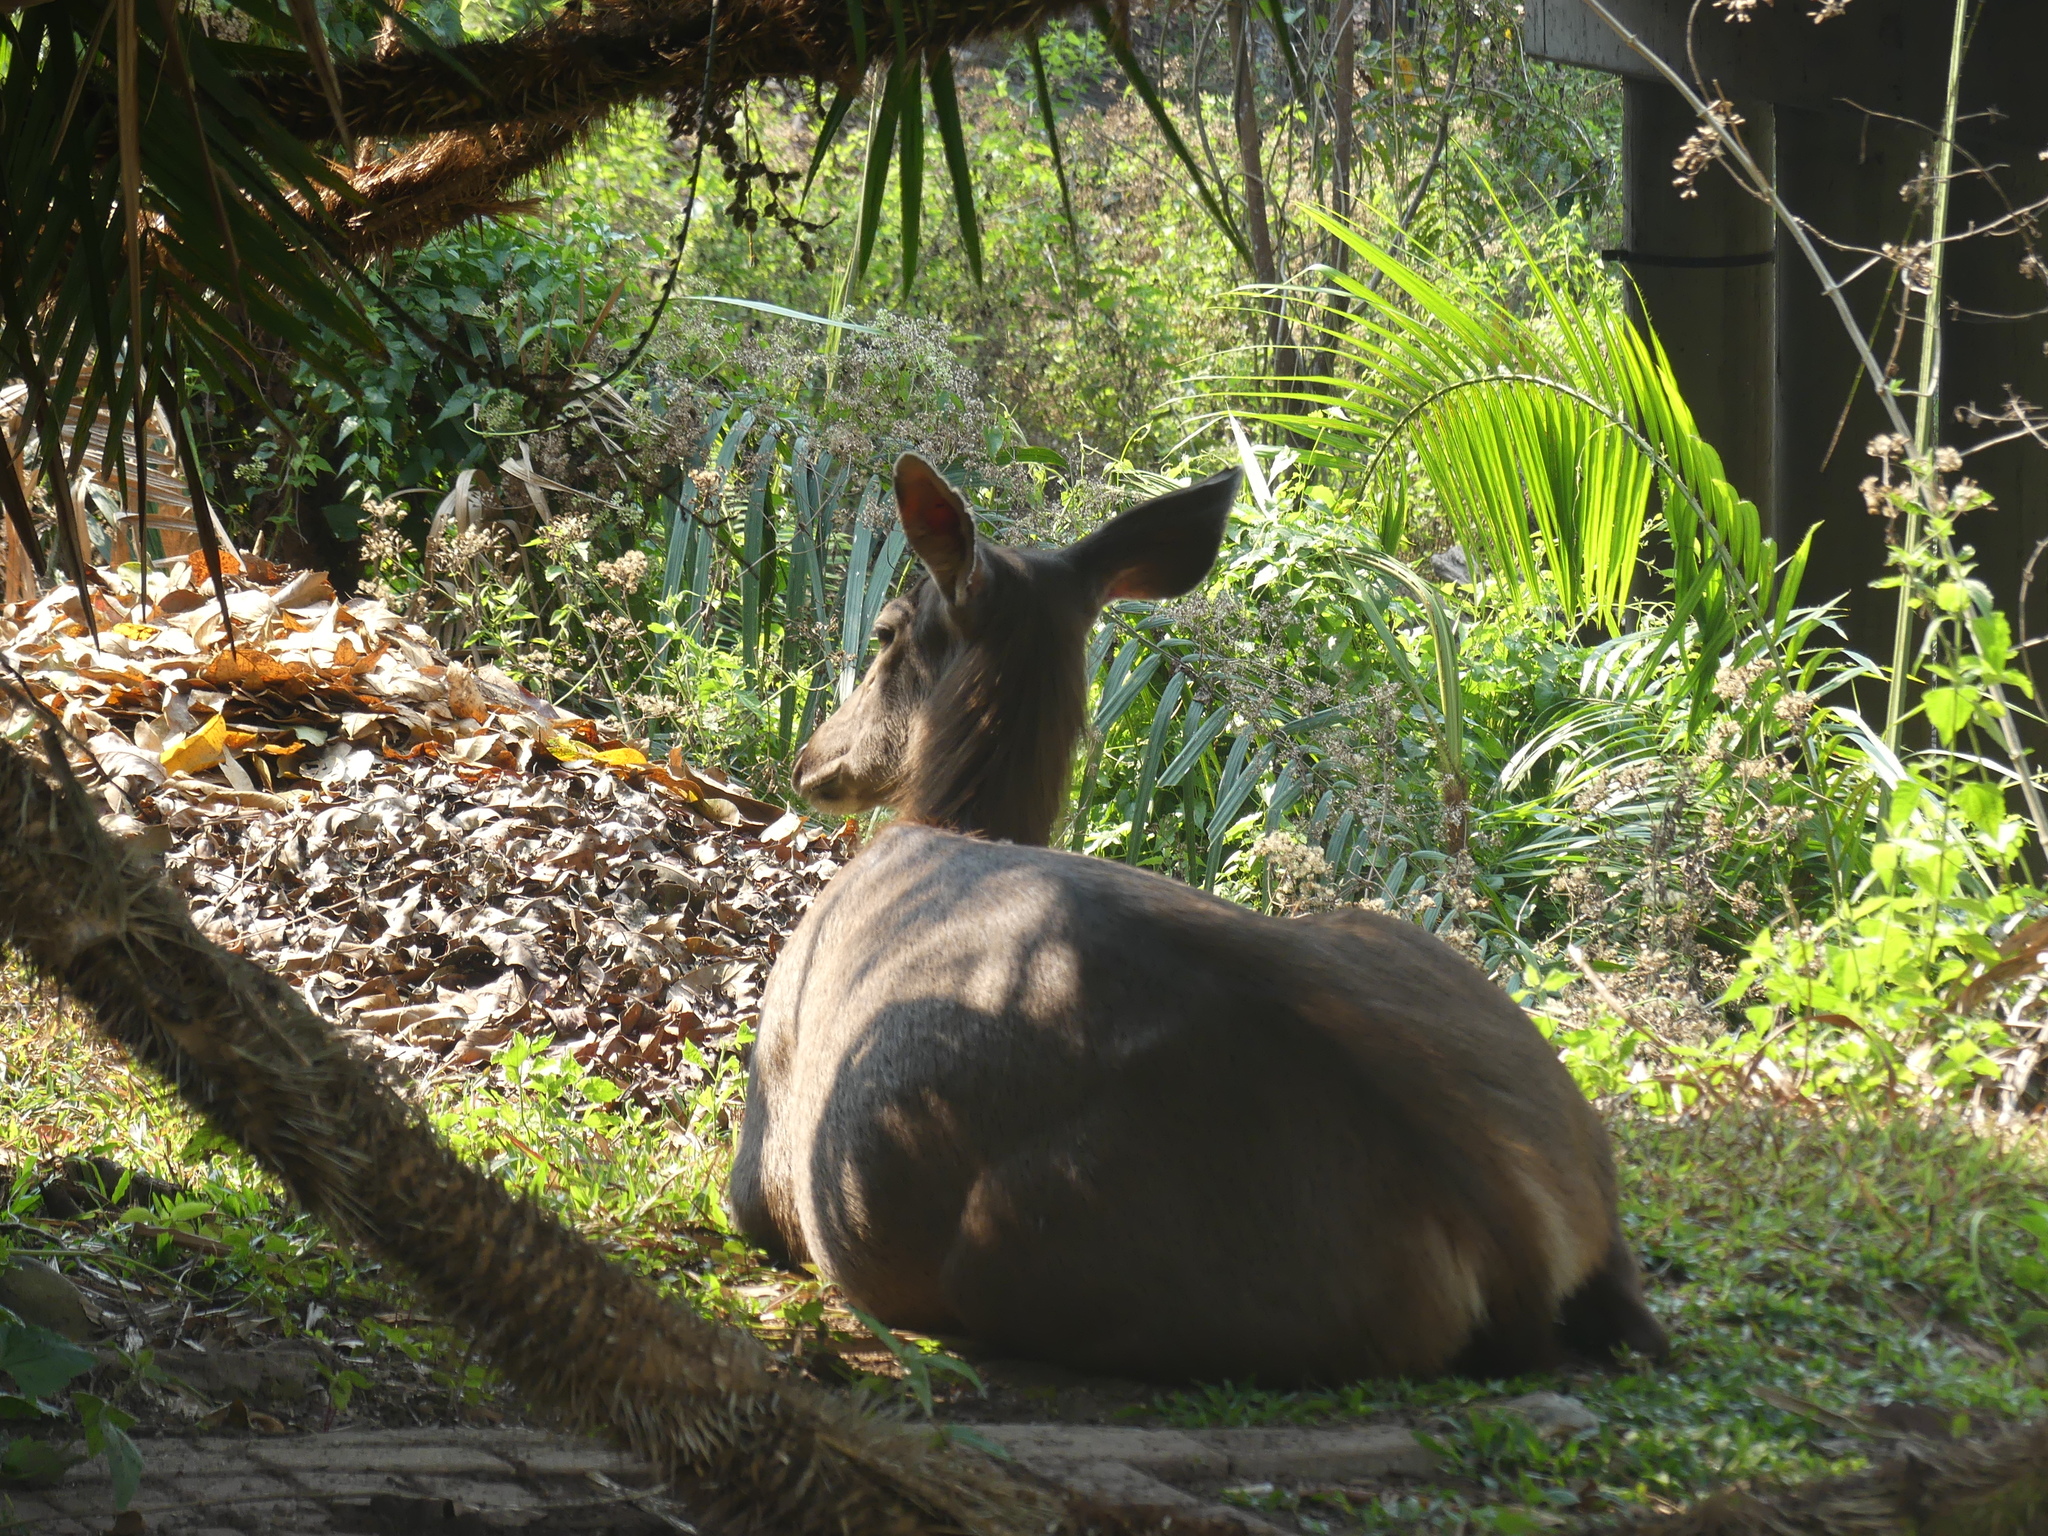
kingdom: Animalia
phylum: Chordata
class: Mammalia
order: Artiodactyla
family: Cervidae
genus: Rusa
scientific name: Rusa unicolor
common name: Sambar
